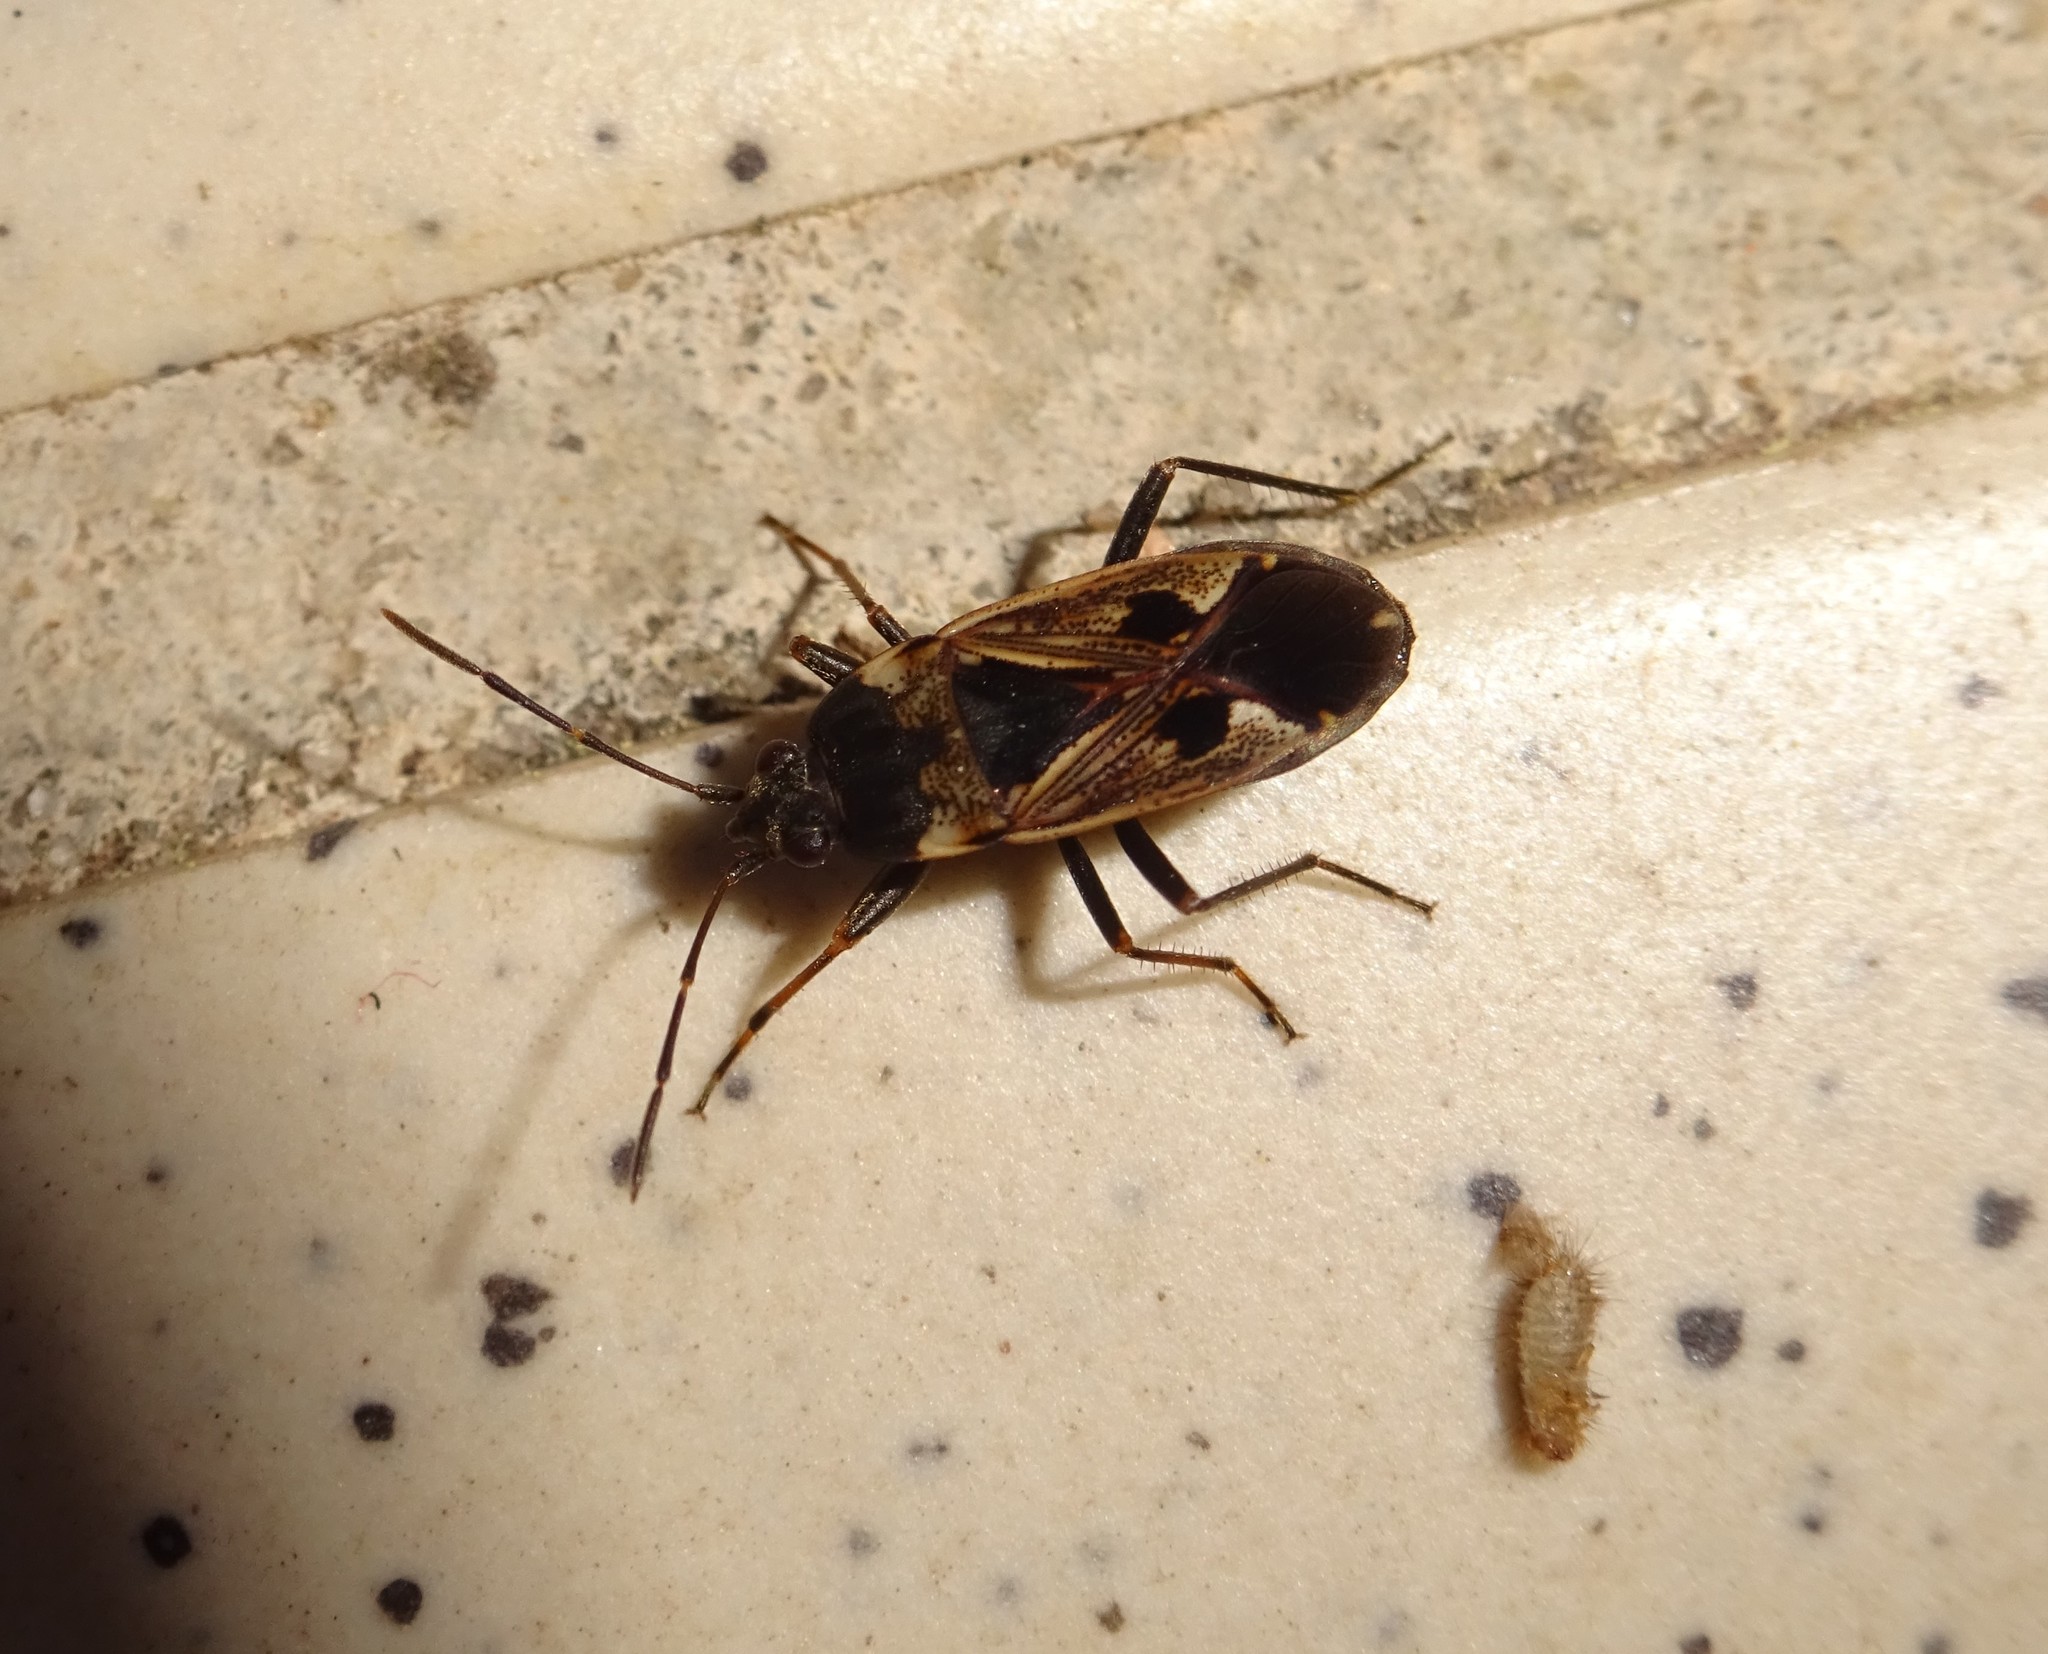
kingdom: Animalia
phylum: Arthropoda
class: Insecta
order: Hemiptera
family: Rhyparochromidae
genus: Rhyparochromus
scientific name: Rhyparochromus vulgaris
